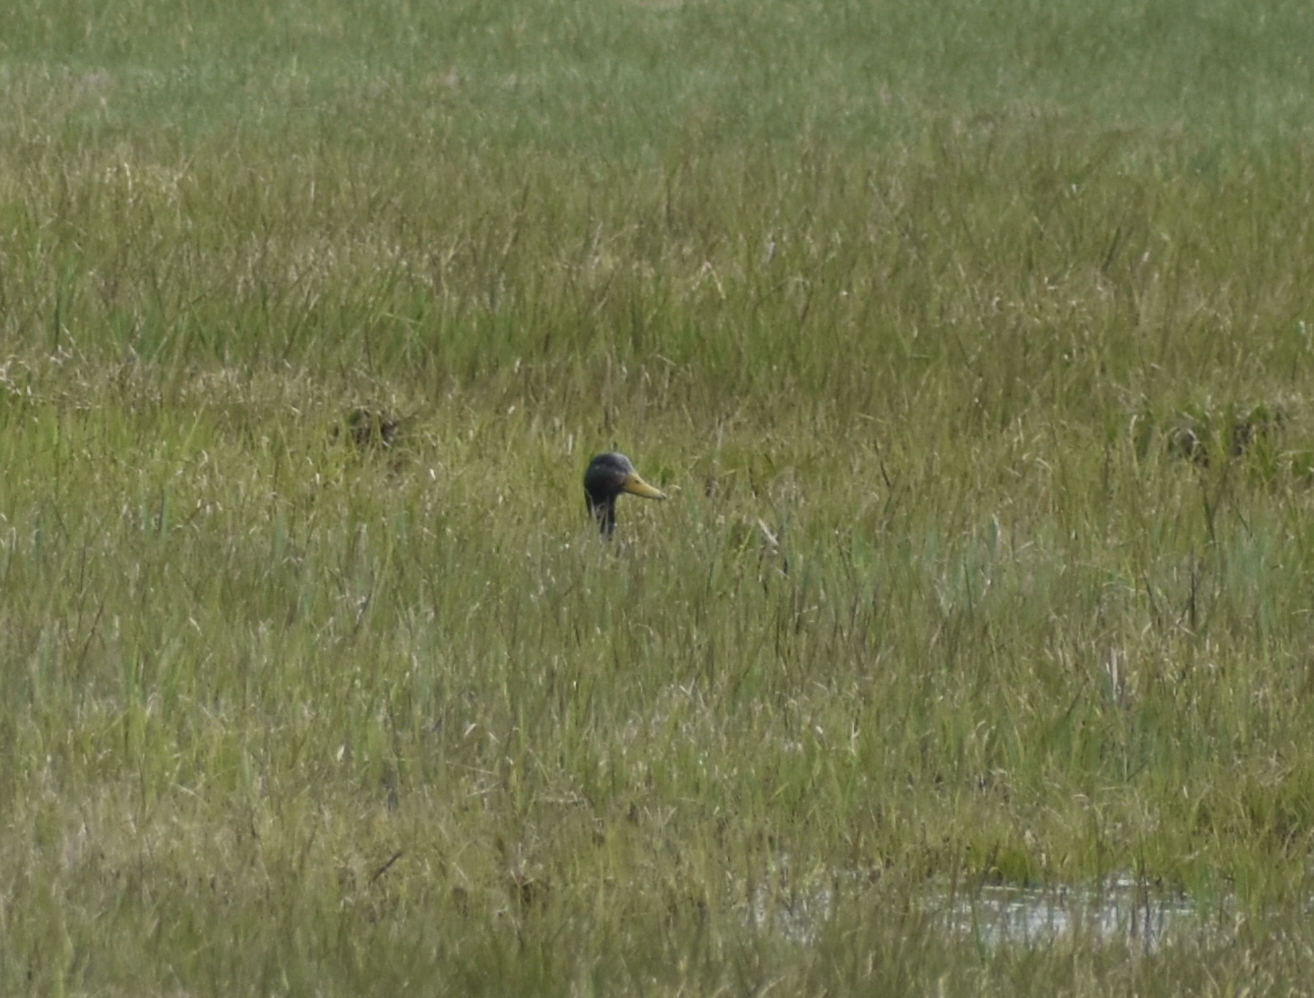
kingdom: Animalia
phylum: Chordata
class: Aves
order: Anseriformes
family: Anatidae
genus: Anas
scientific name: Anas rubripes
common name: American black duck
